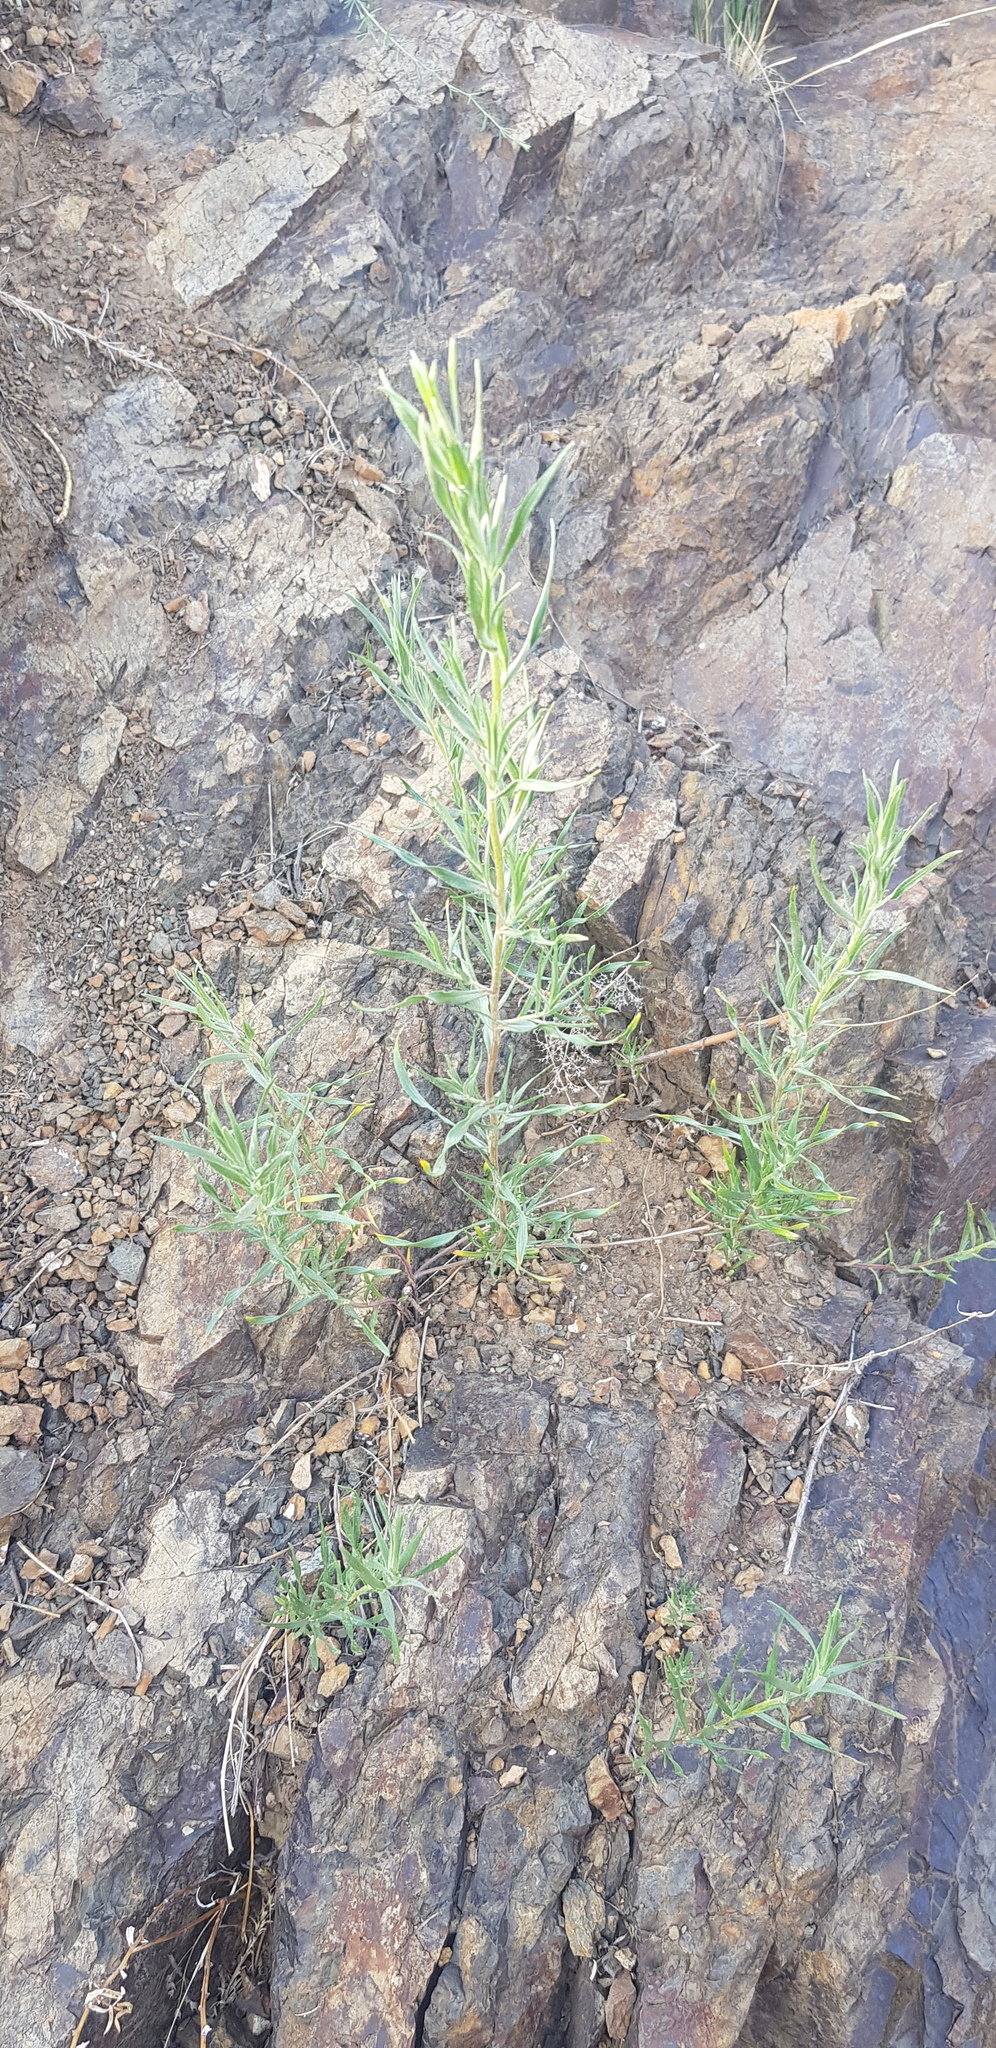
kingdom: Plantae
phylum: Tracheophyta
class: Magnoliopsida
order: Asterales
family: Asteraceae
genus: Artemisia
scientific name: Artemisia dracunculus
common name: Tarragon
